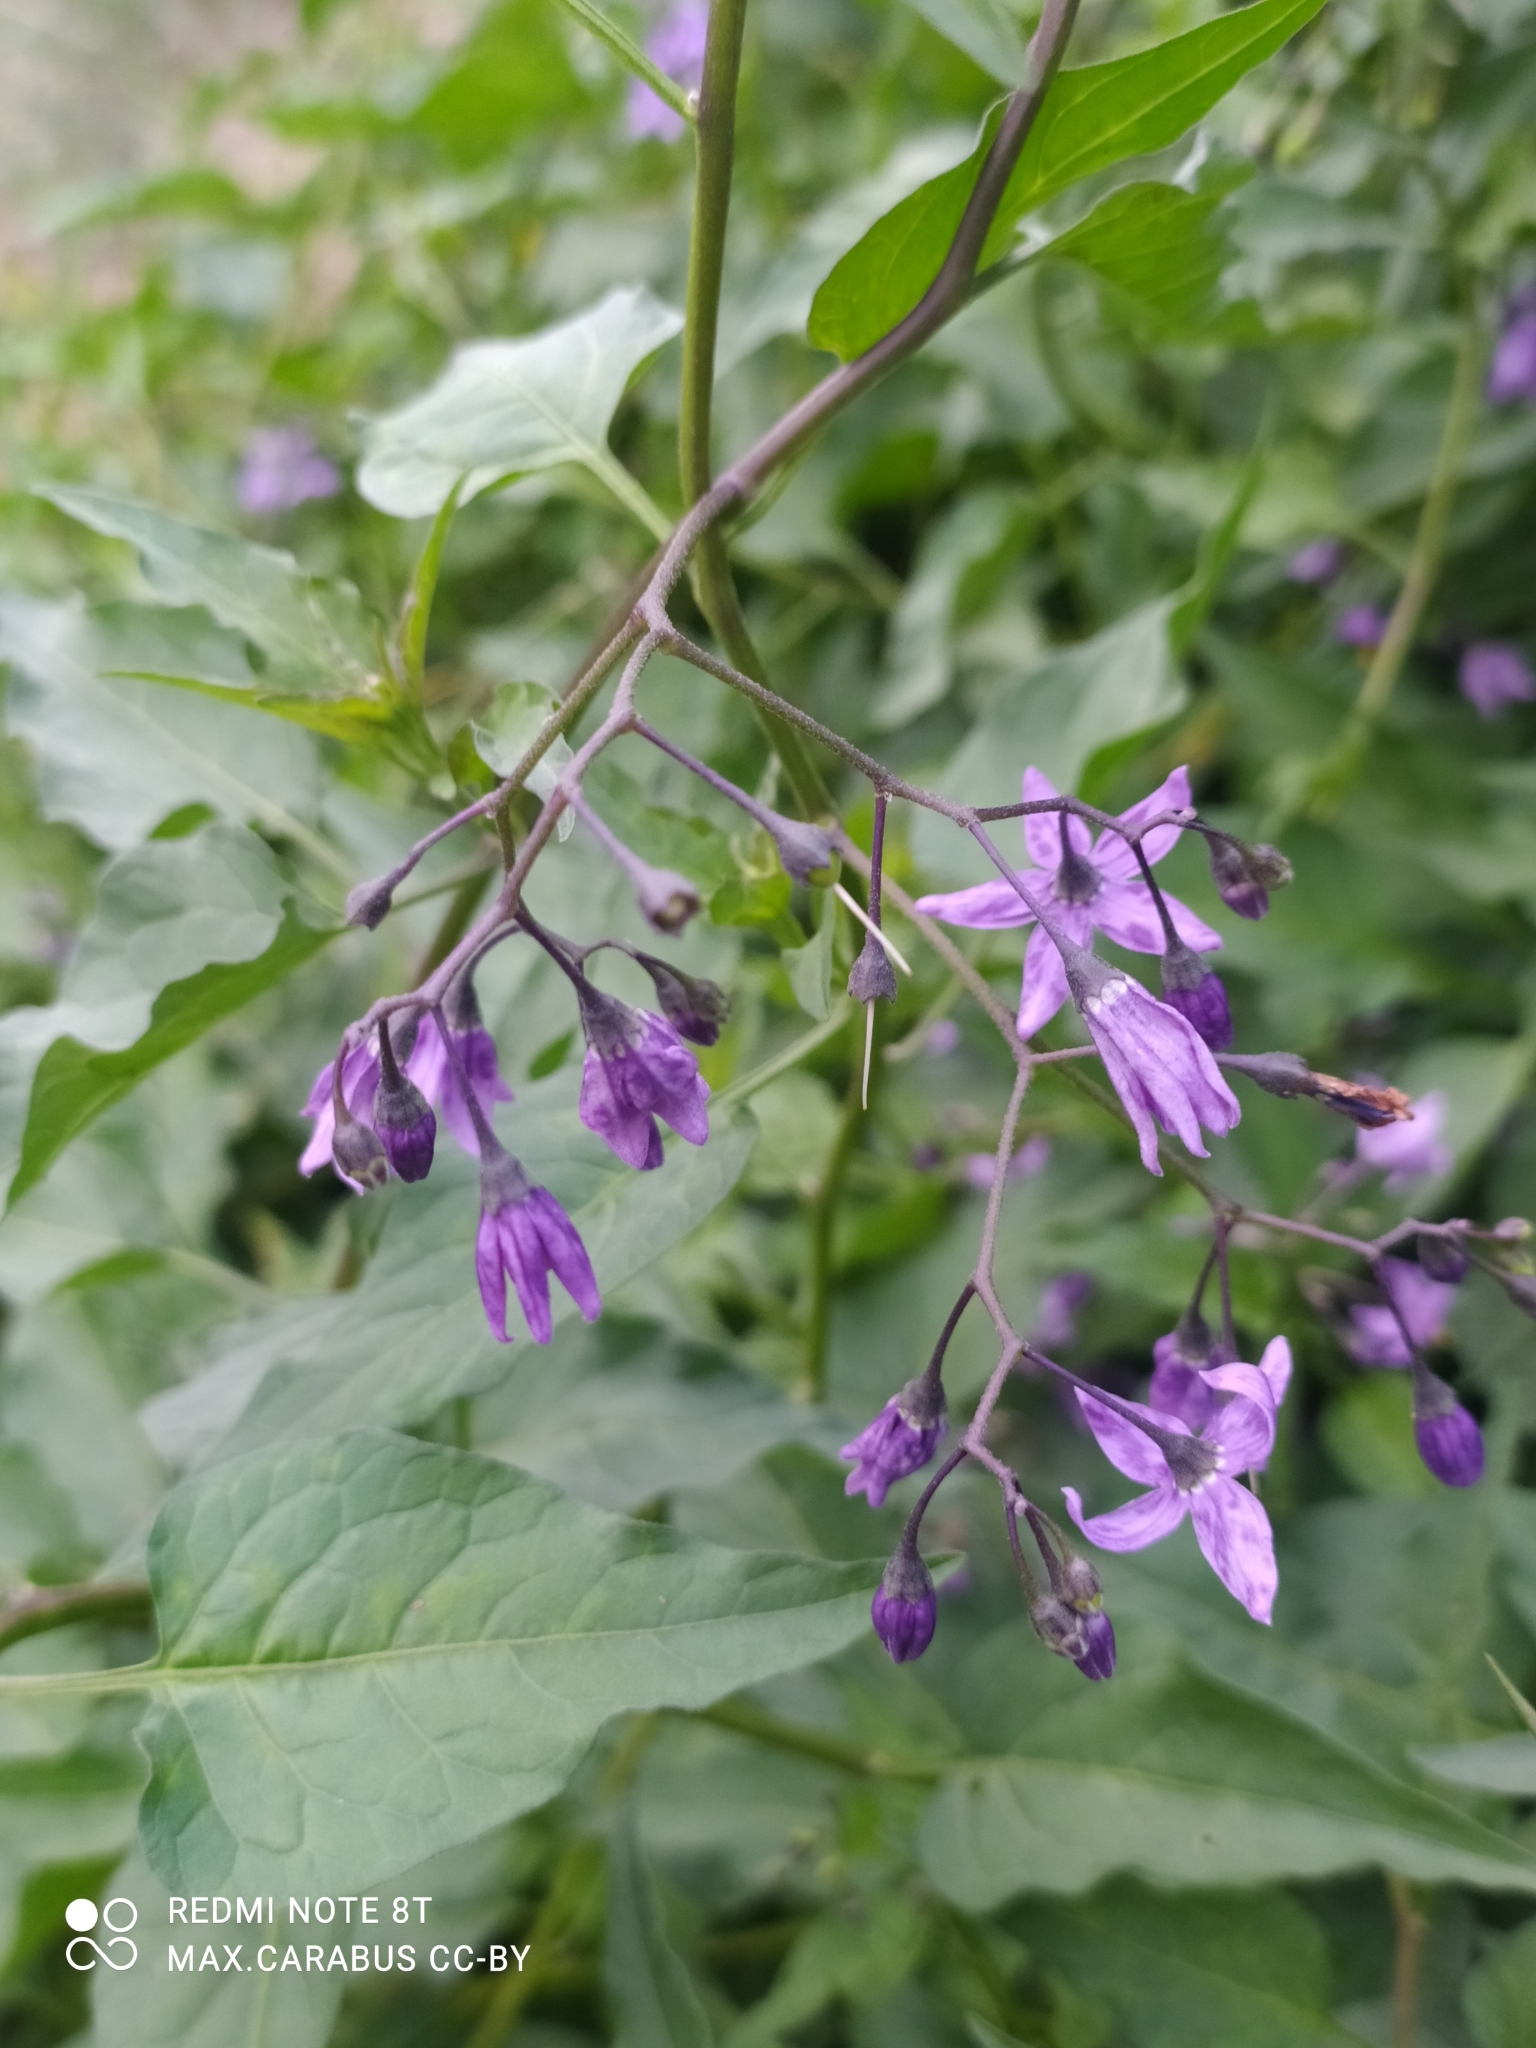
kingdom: Plantae
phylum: Tracheophyta
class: Magnoliopsida
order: Solanales
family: Solanaceae
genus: Solanum
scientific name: Solanum dulcamara
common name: Climbing nightshade
